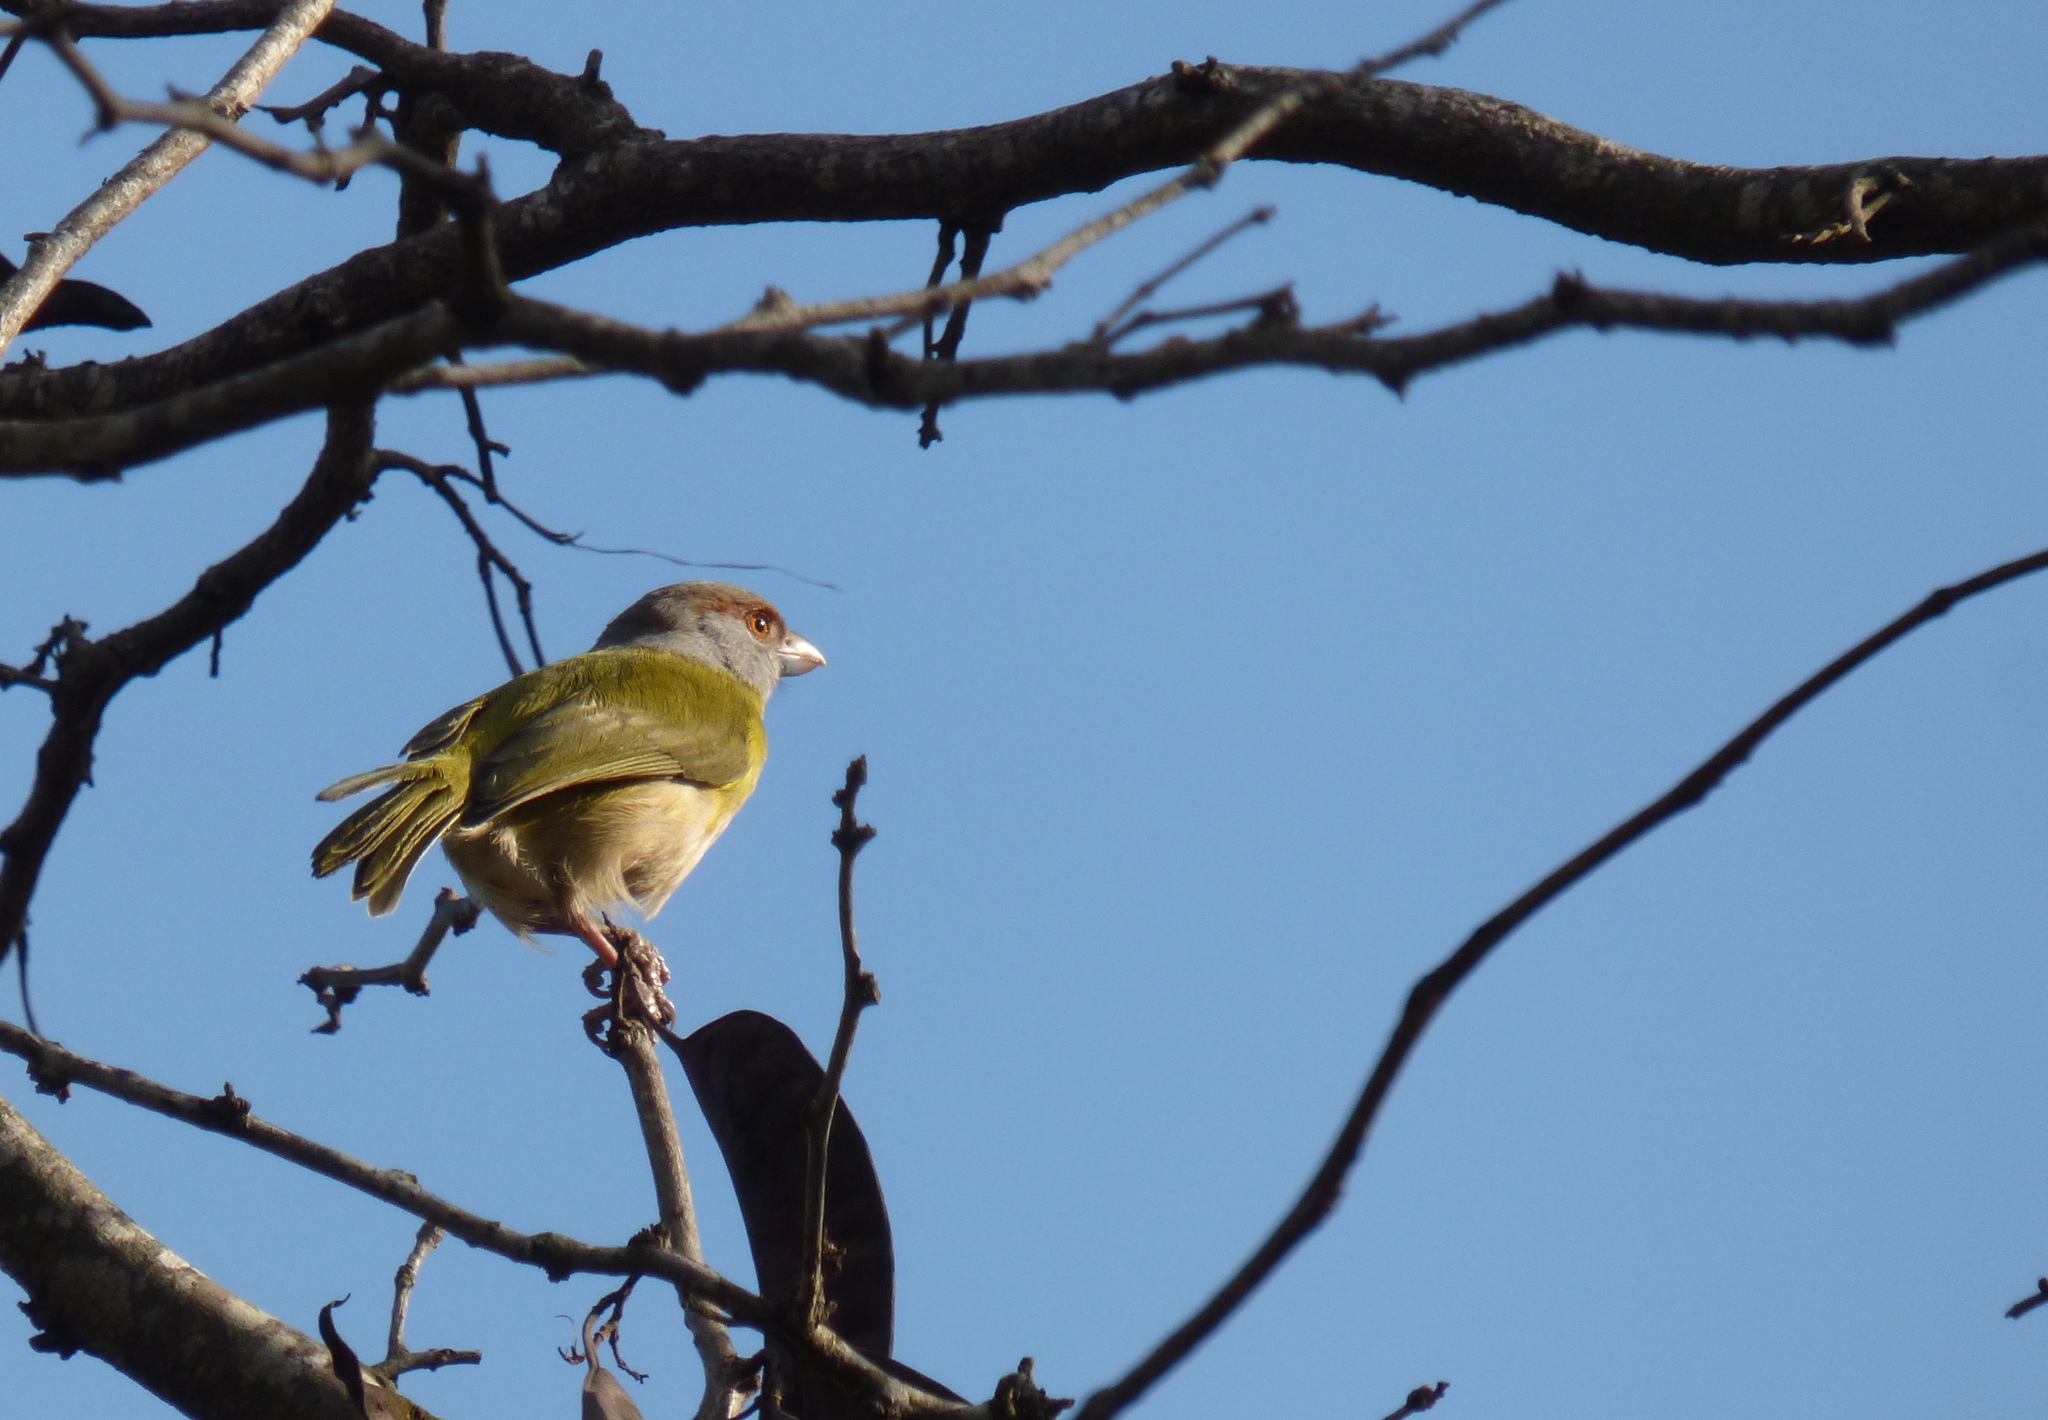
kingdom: Animalia
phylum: Chordata
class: Aves
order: Passeriformes
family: Vireonidae
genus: Cyclarhis
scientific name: Cyclarhis gujanensis
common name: Rufous-browed peppershrike
